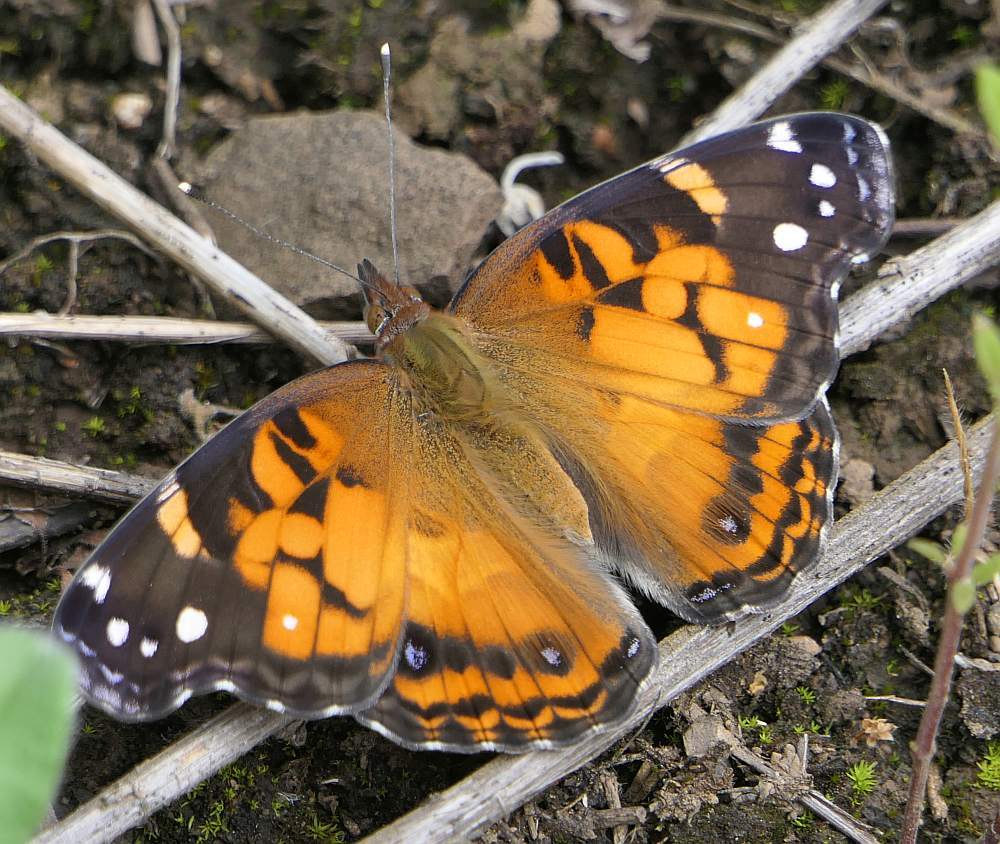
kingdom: Animalia
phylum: Arthropoda
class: Insecta
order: Lepidoptera
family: Nymphalidae
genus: Vanessa
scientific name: Vanessa virginiensis
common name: American lady
